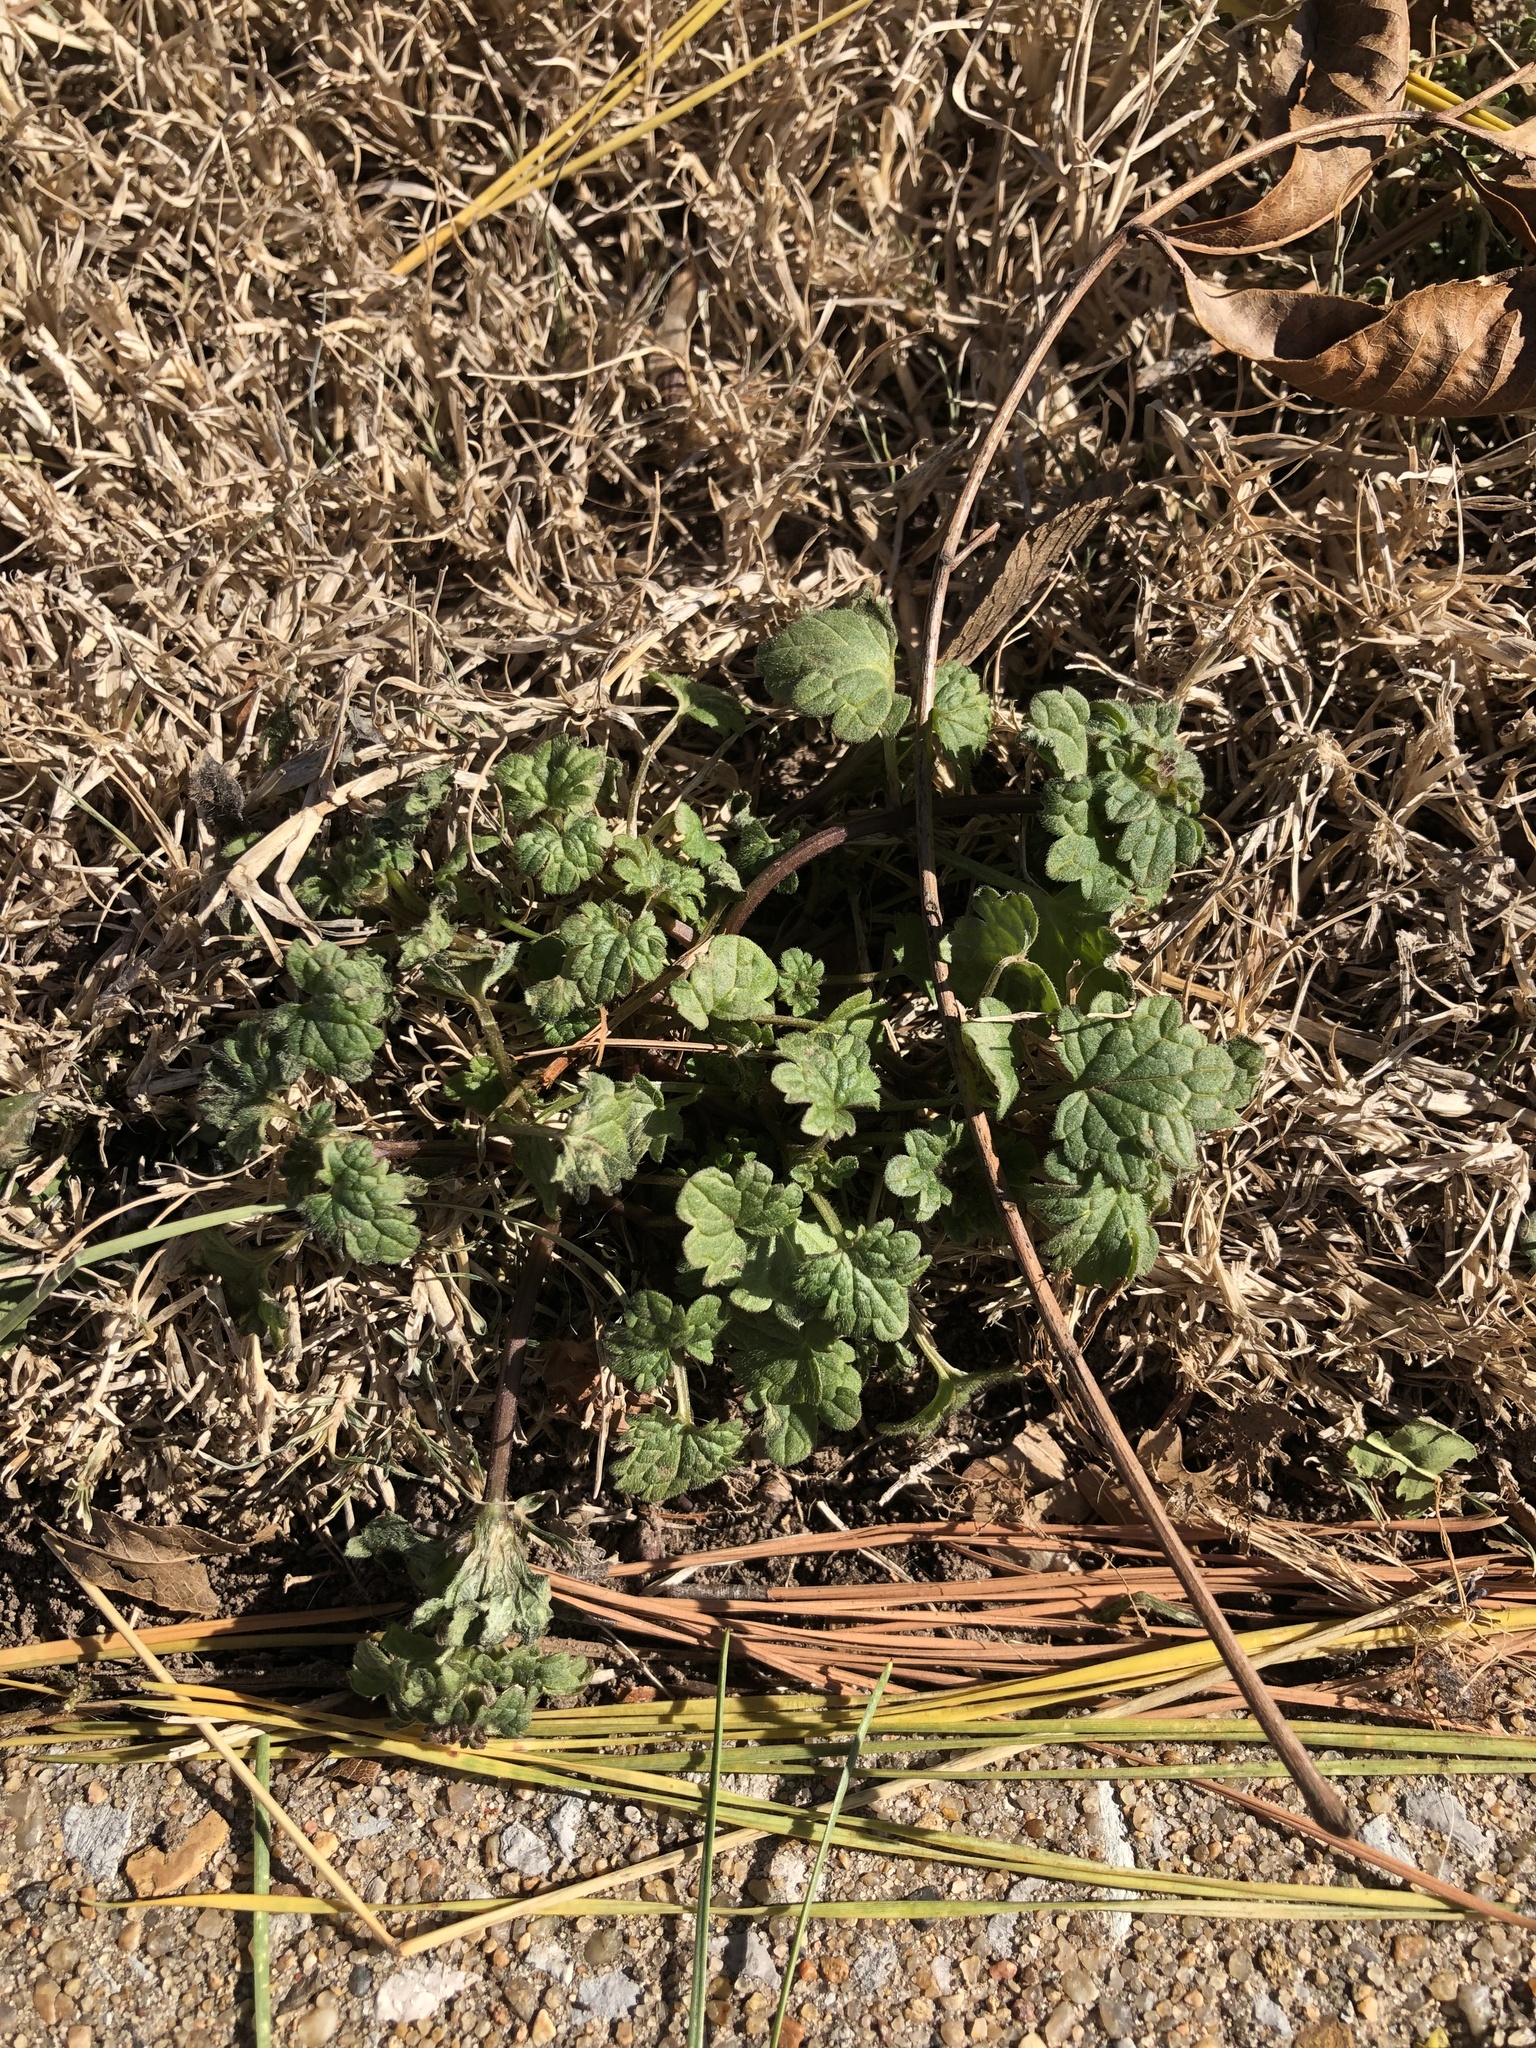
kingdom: Plantae
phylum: Tracheophyta
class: Magnoliopsida
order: Lamiales
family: Lamiaceae
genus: Lamium
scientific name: Lamium amplexicaule
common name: Henbit dead-nettle
